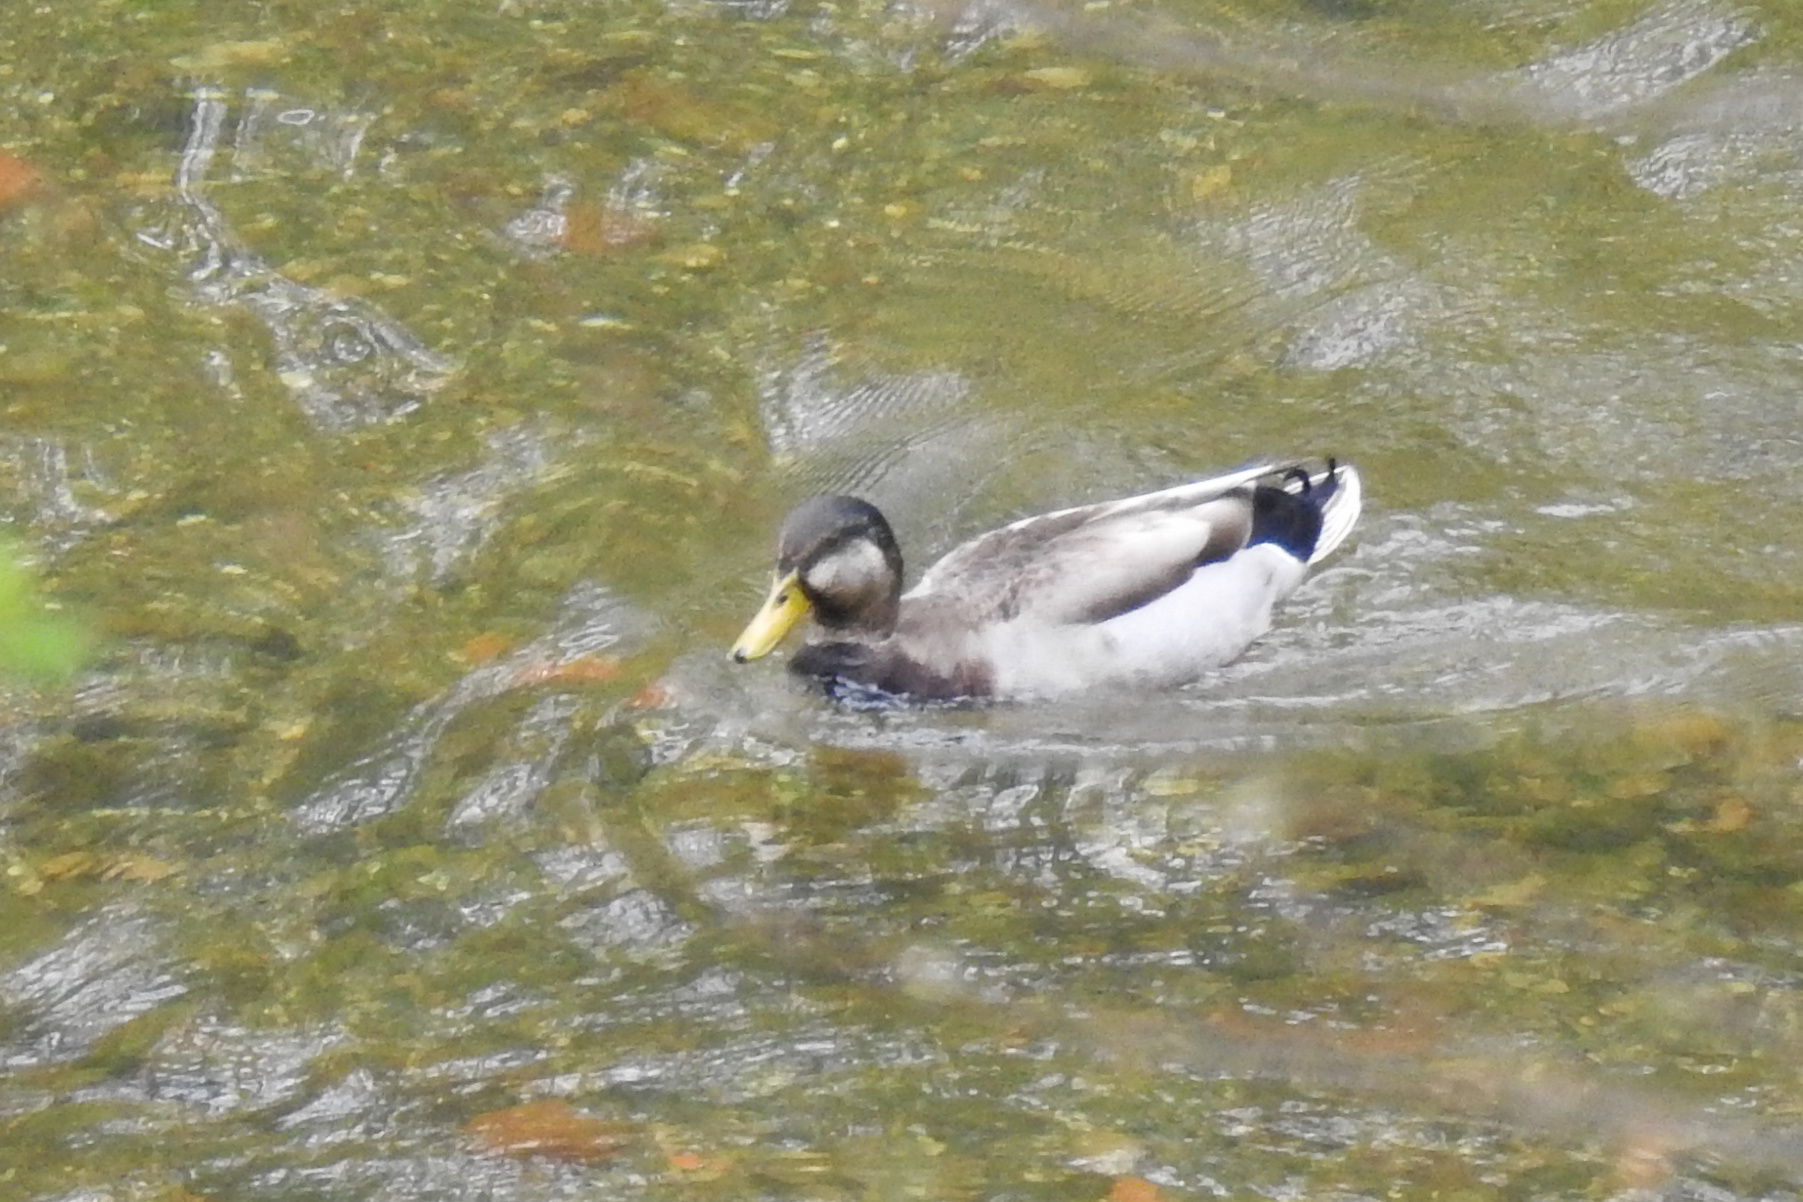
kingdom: Animalia
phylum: Chordata
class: Aves
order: Anseriformes
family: Anatidae
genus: Anas
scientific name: Anas platyrhynchos
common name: Mallard
